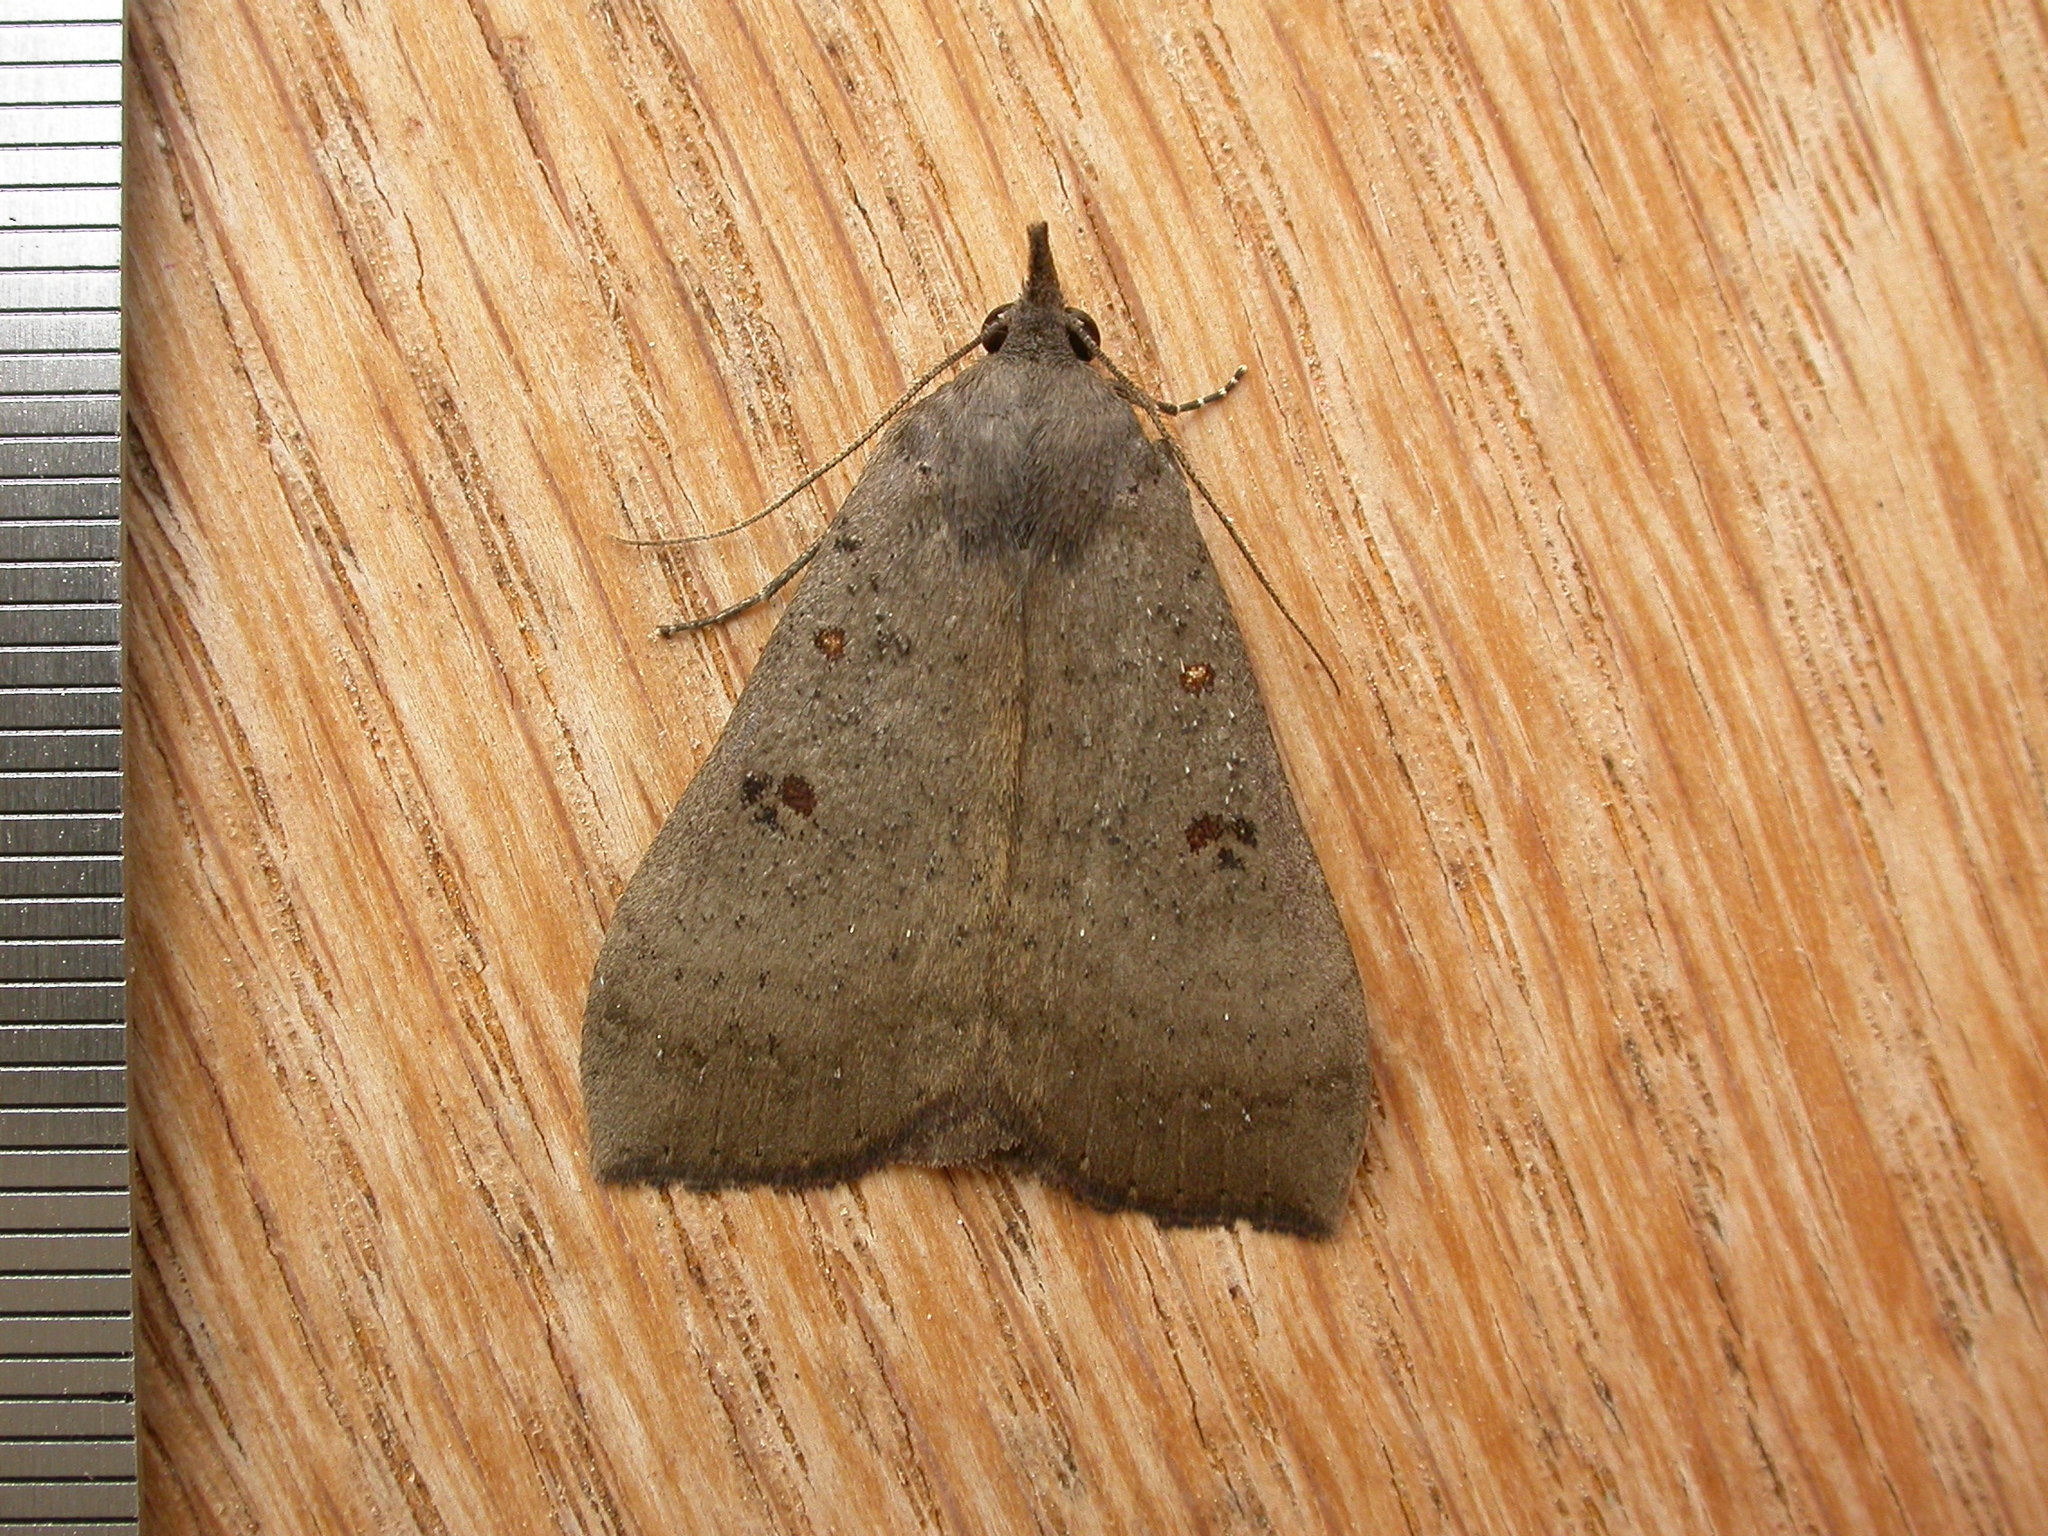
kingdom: Animalia
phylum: Arthropoda
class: Insecta
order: Lepidoptera
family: Erebidae
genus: Rhapsa
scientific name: Rhapsa suscitatalis
